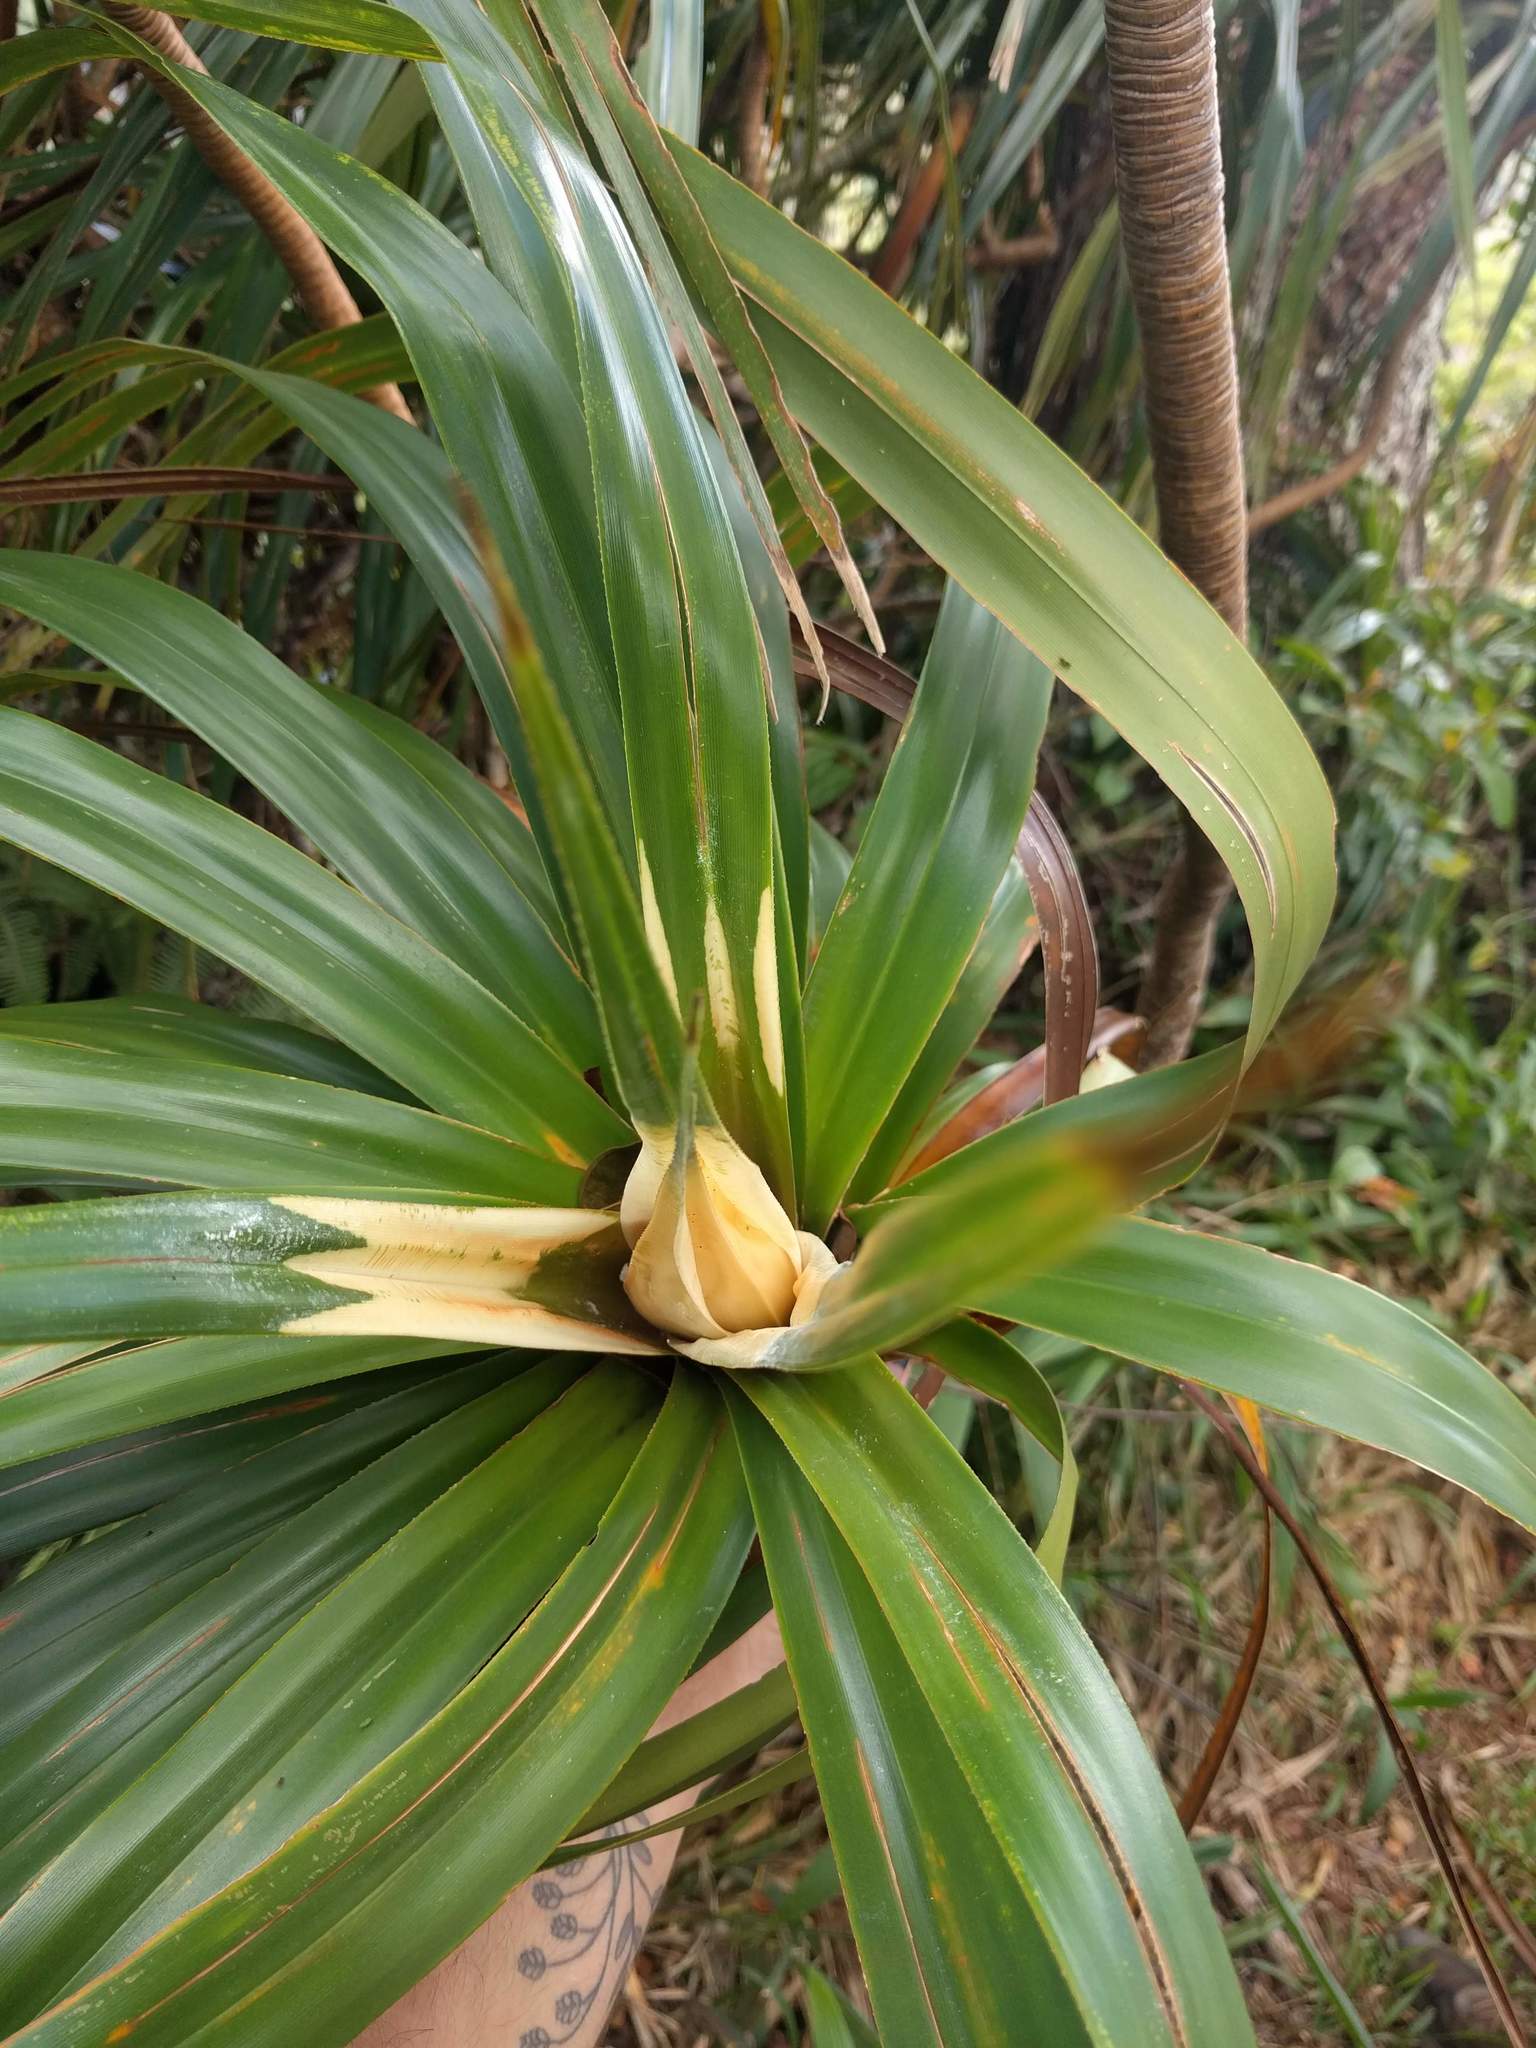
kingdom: Plantae
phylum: Tracheophyta
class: Liliopsida
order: Pandanales
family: Pandanaceae
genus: Freycinetia
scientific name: Freycinetia arborea
